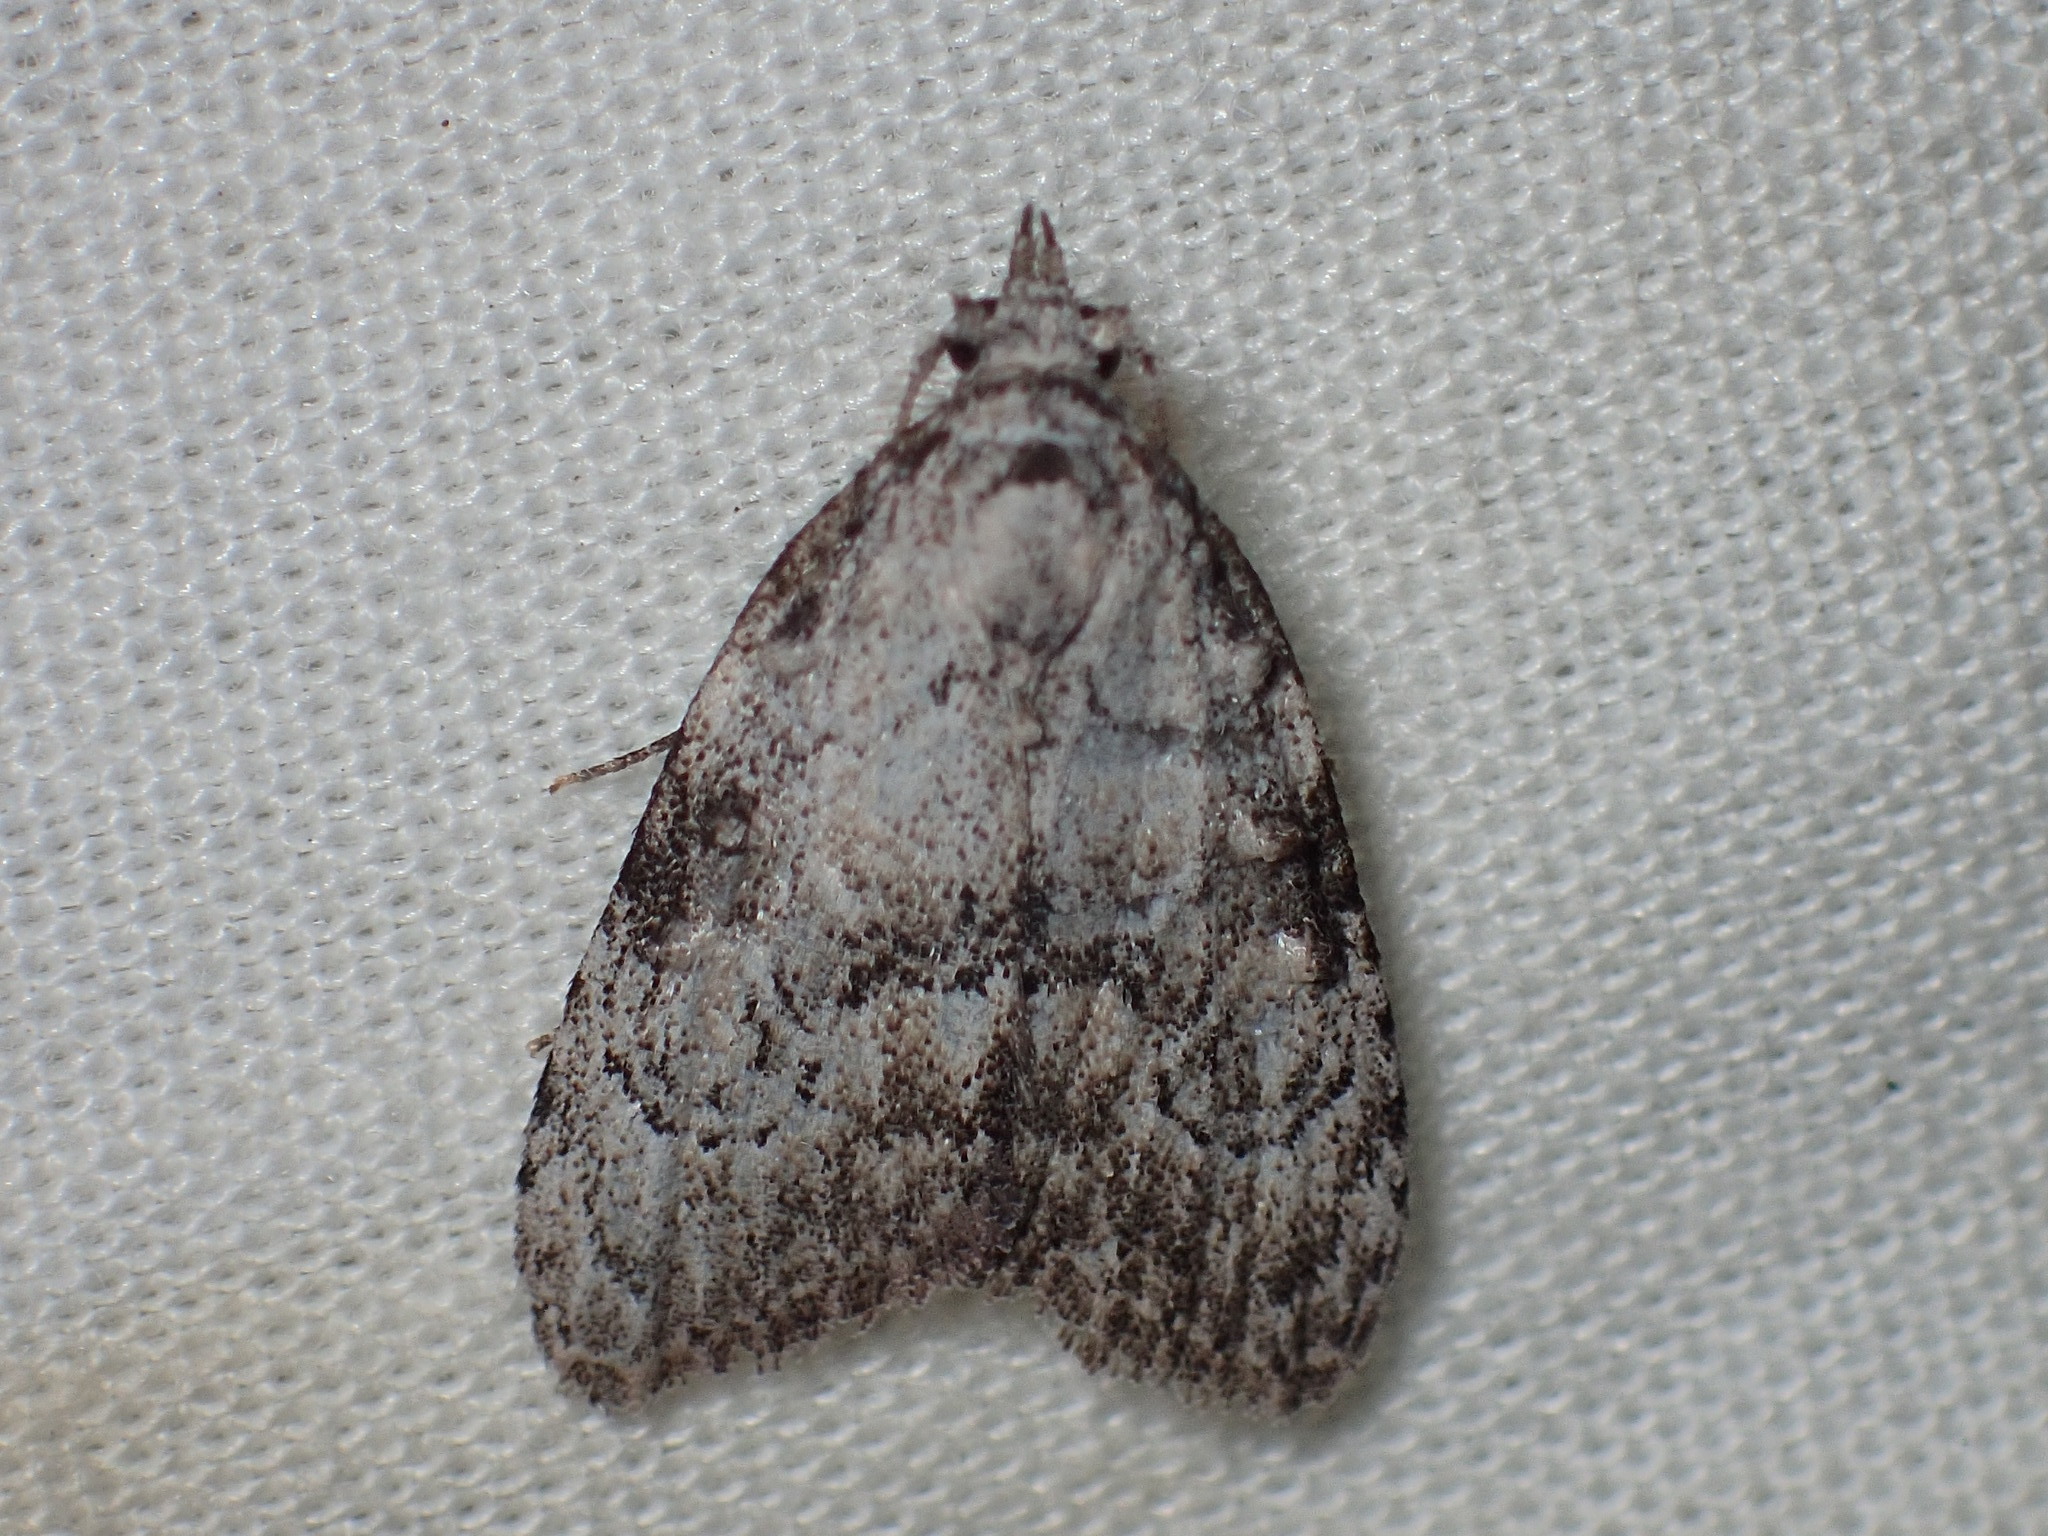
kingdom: Animalia
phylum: Arthropoda
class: Insecta
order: Lepidoptera
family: Nolidae
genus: Meganola
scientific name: Meganola minuscula
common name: Confused meganola moth
